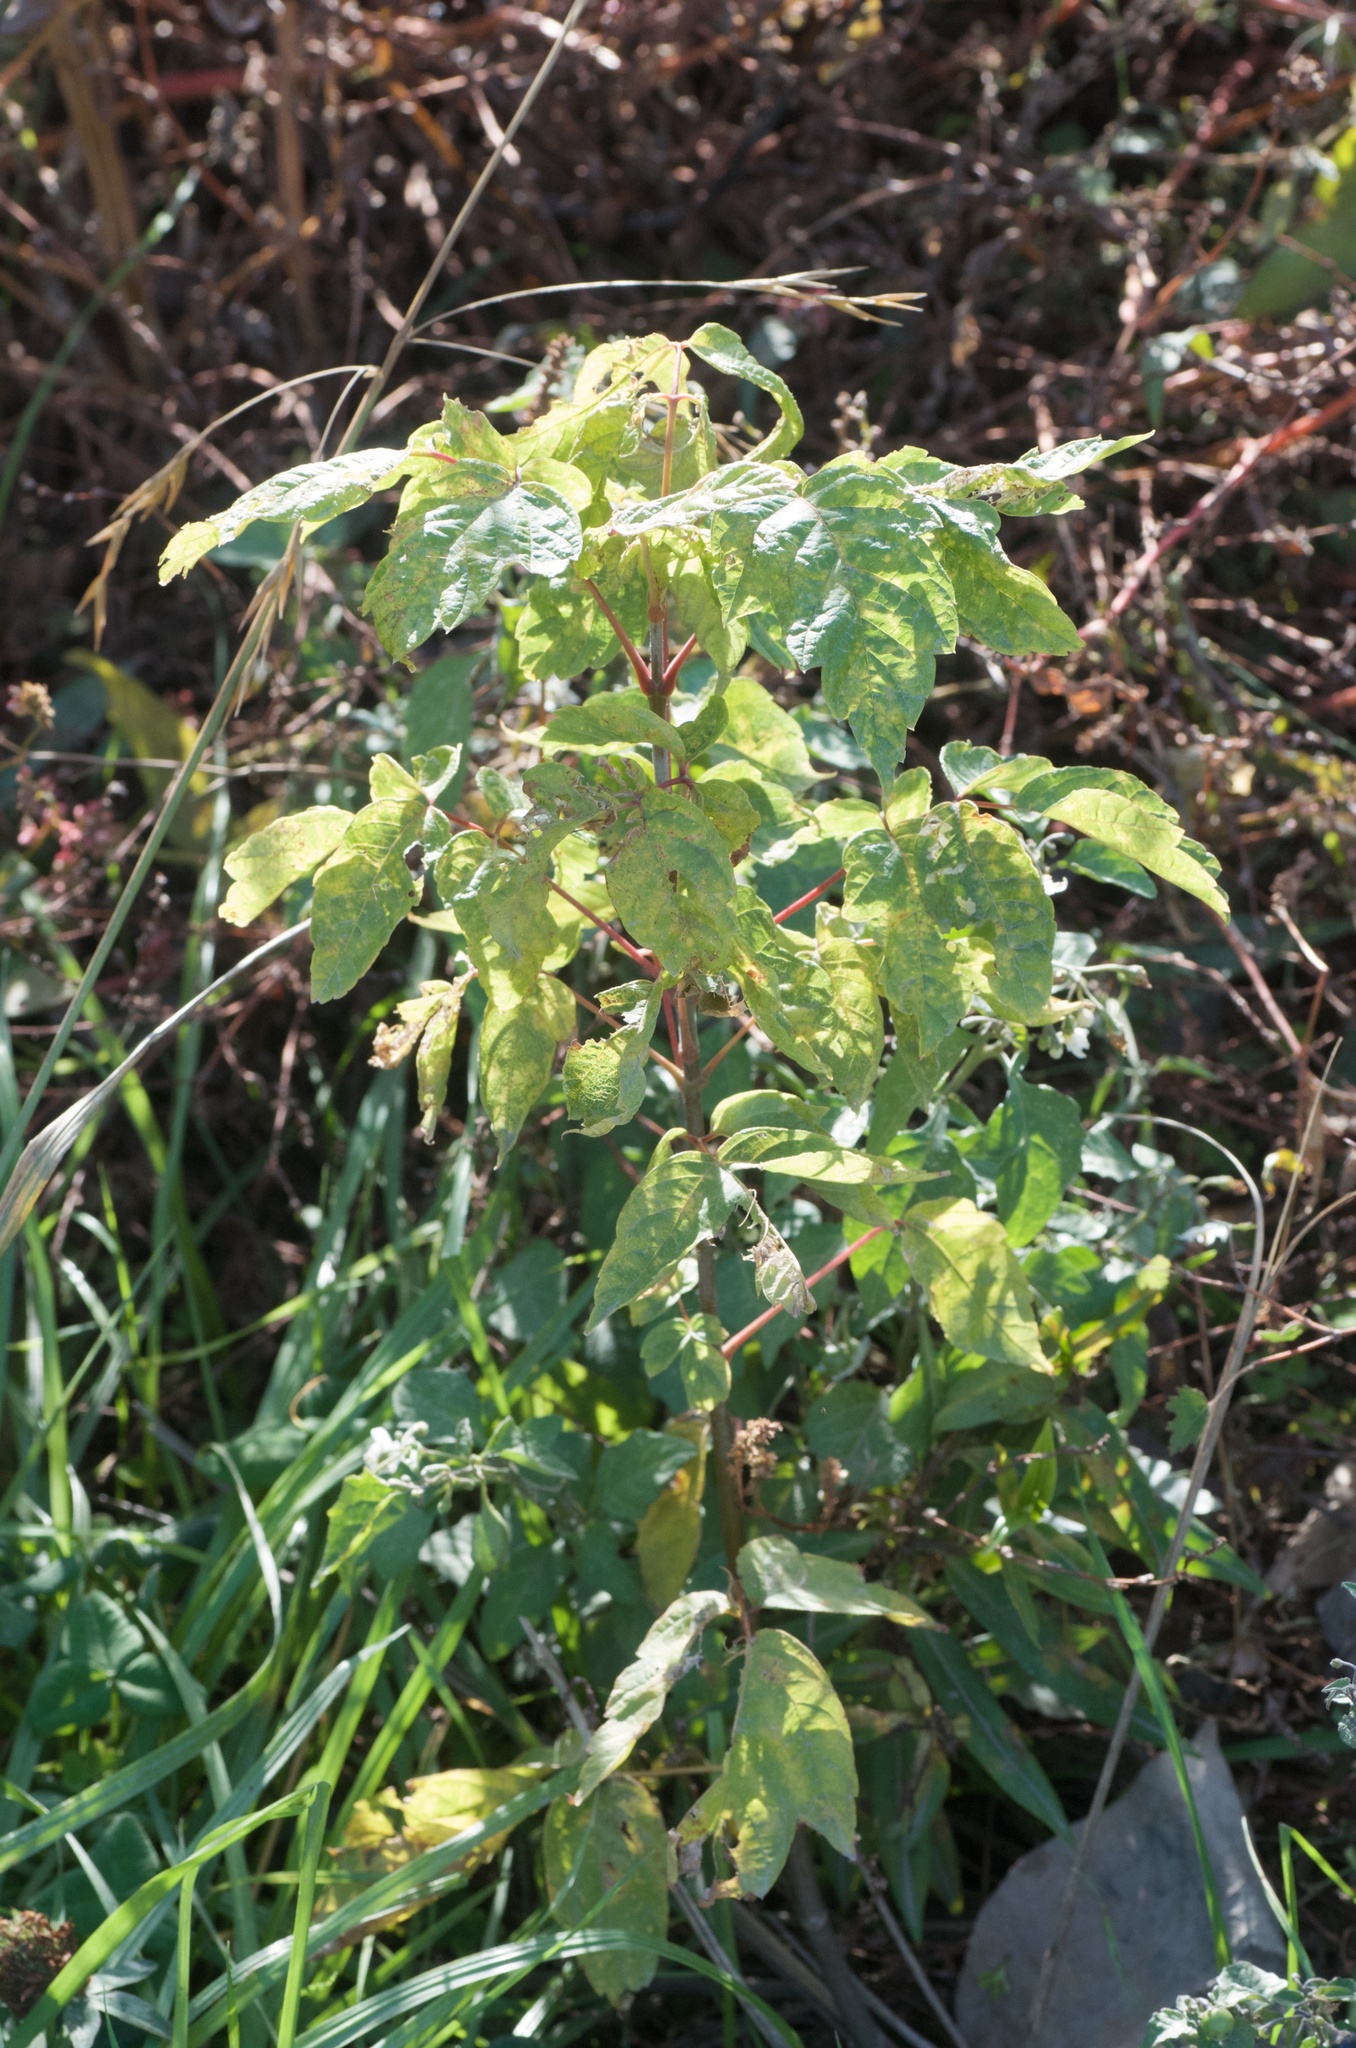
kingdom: Plantae
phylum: Tracheophyta
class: Magnoliopsida
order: Sapindales
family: Sapindaceae
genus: Acer
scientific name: Acer negundo
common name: Ashleaf maple
